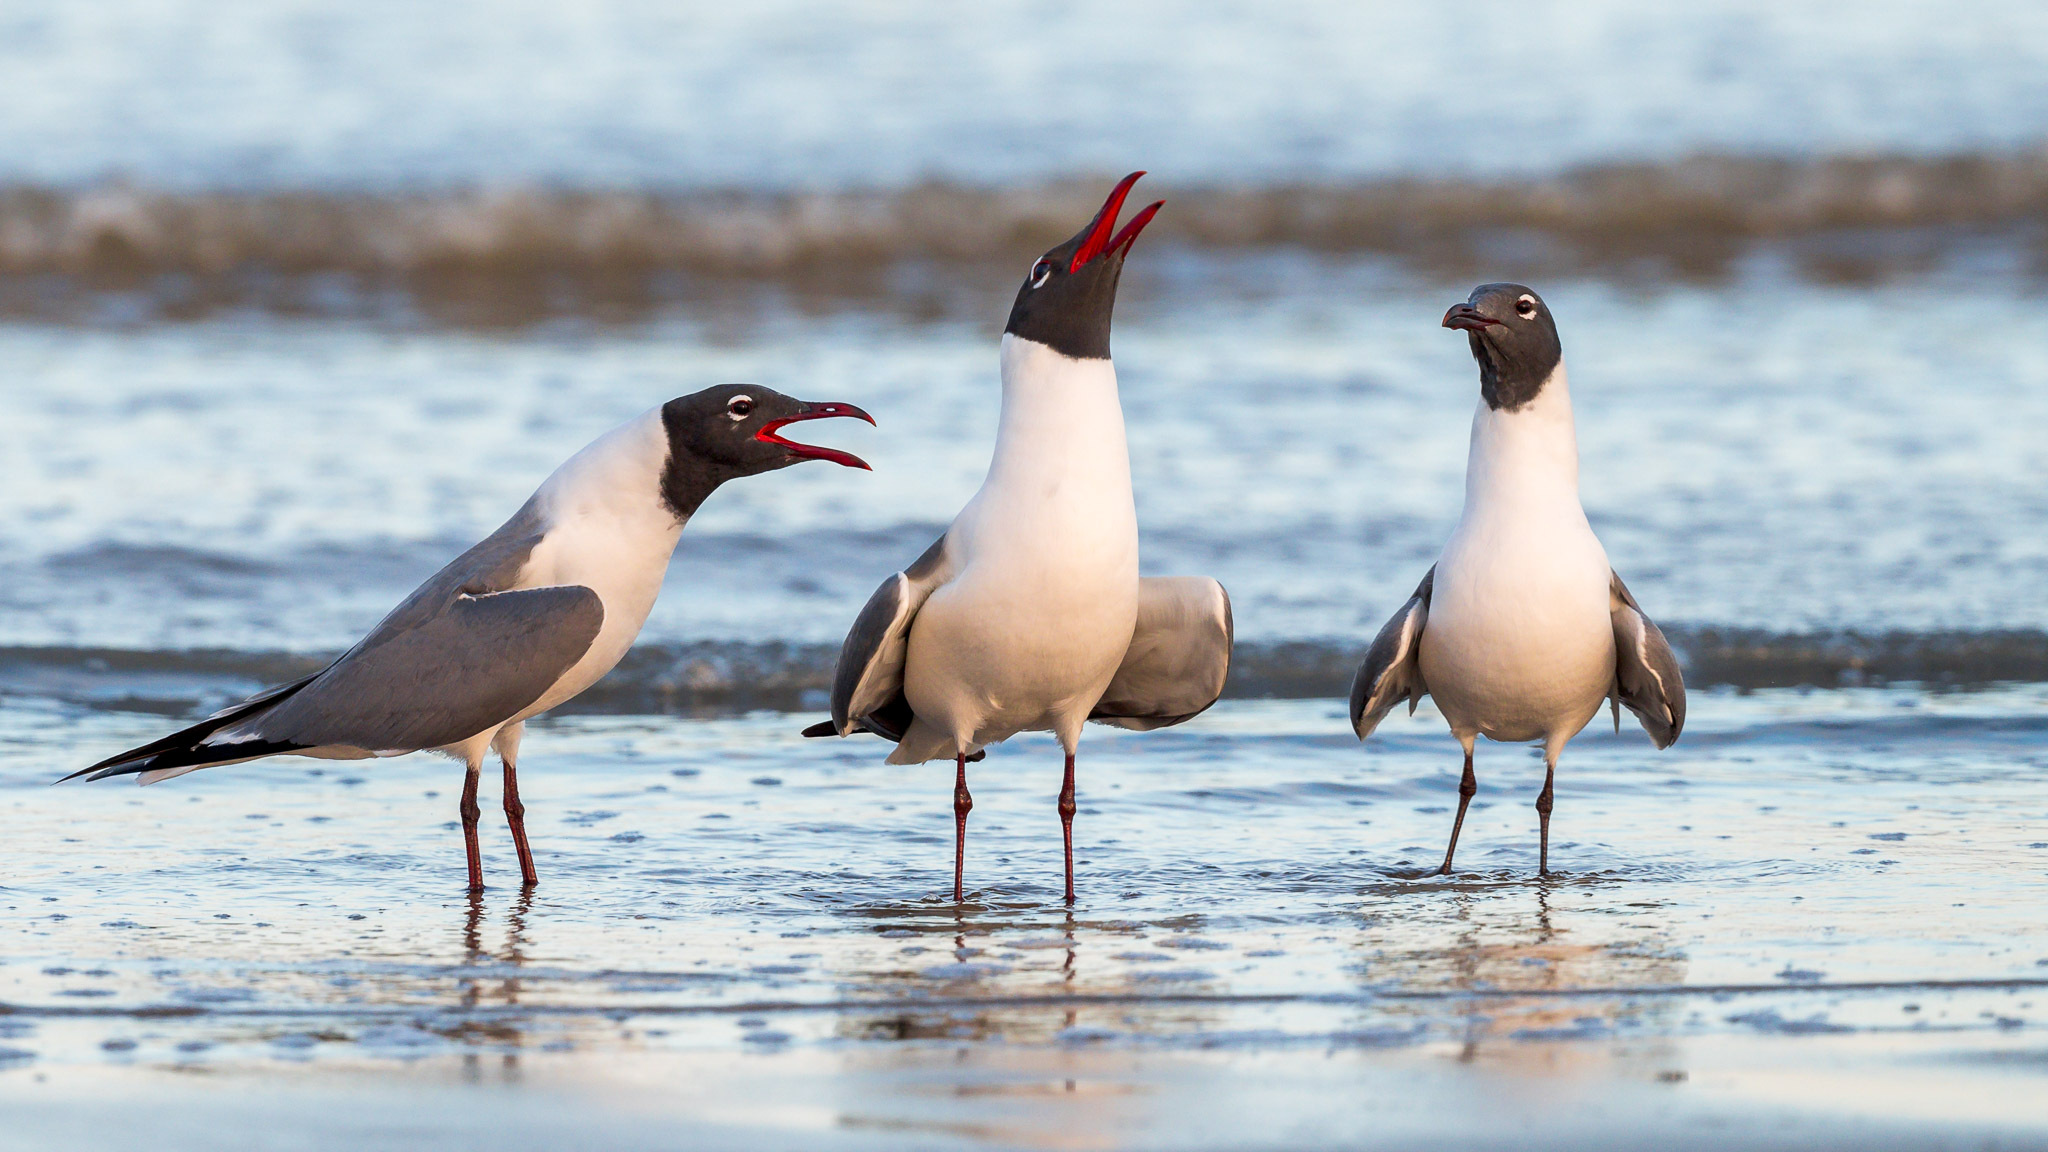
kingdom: Animalia
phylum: Chordata
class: Aves
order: Charadriiformes
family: Laridae
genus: Leucophaeus
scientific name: Leucophaeus atricilla
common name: Laughing gull
